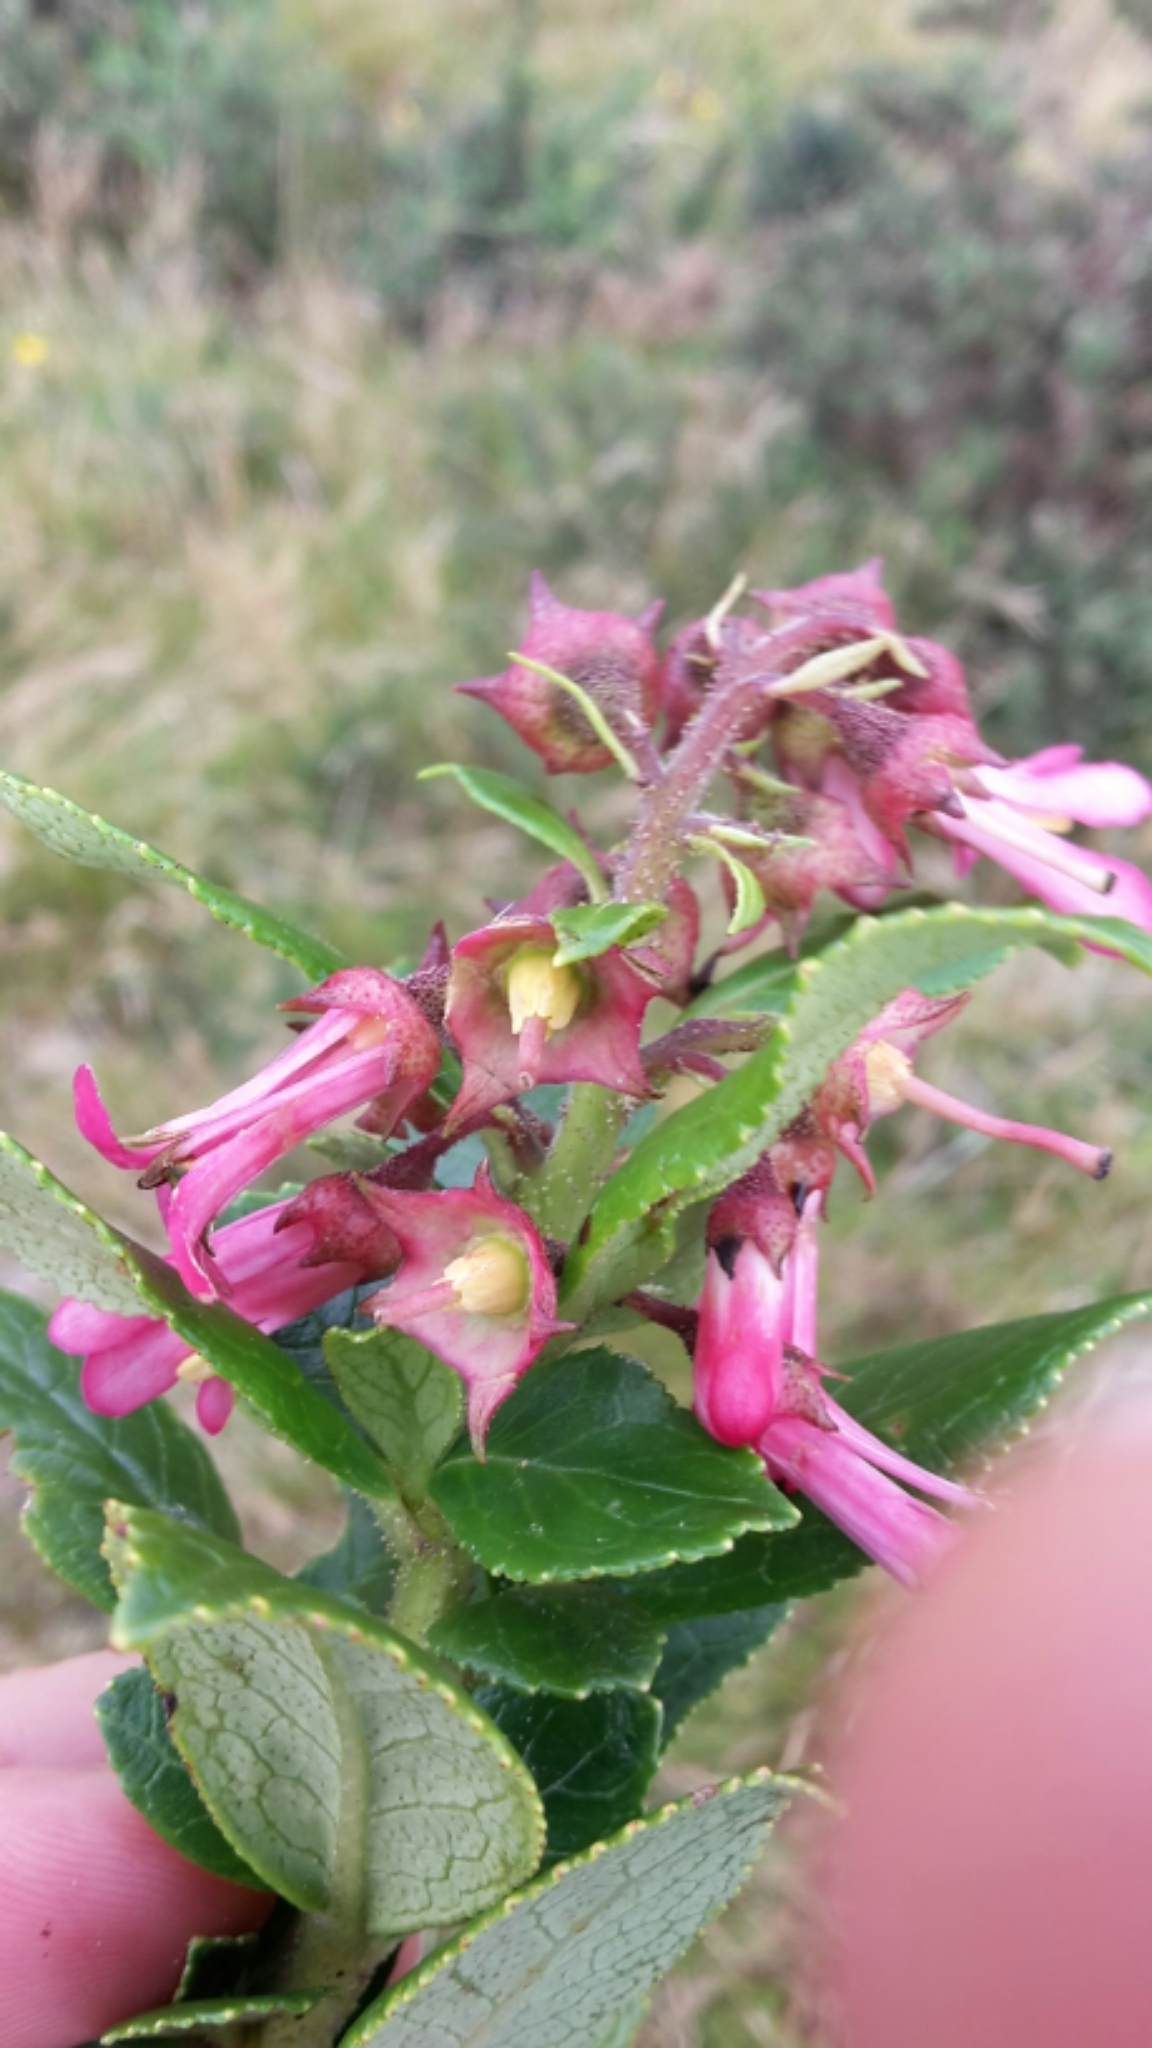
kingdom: Plantae
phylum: Tracheophyta
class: Magnoliopsida
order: Escalloniales
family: Escalloniaceae
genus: Escallonia
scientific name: Escallonia rubra
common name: Redclaws
